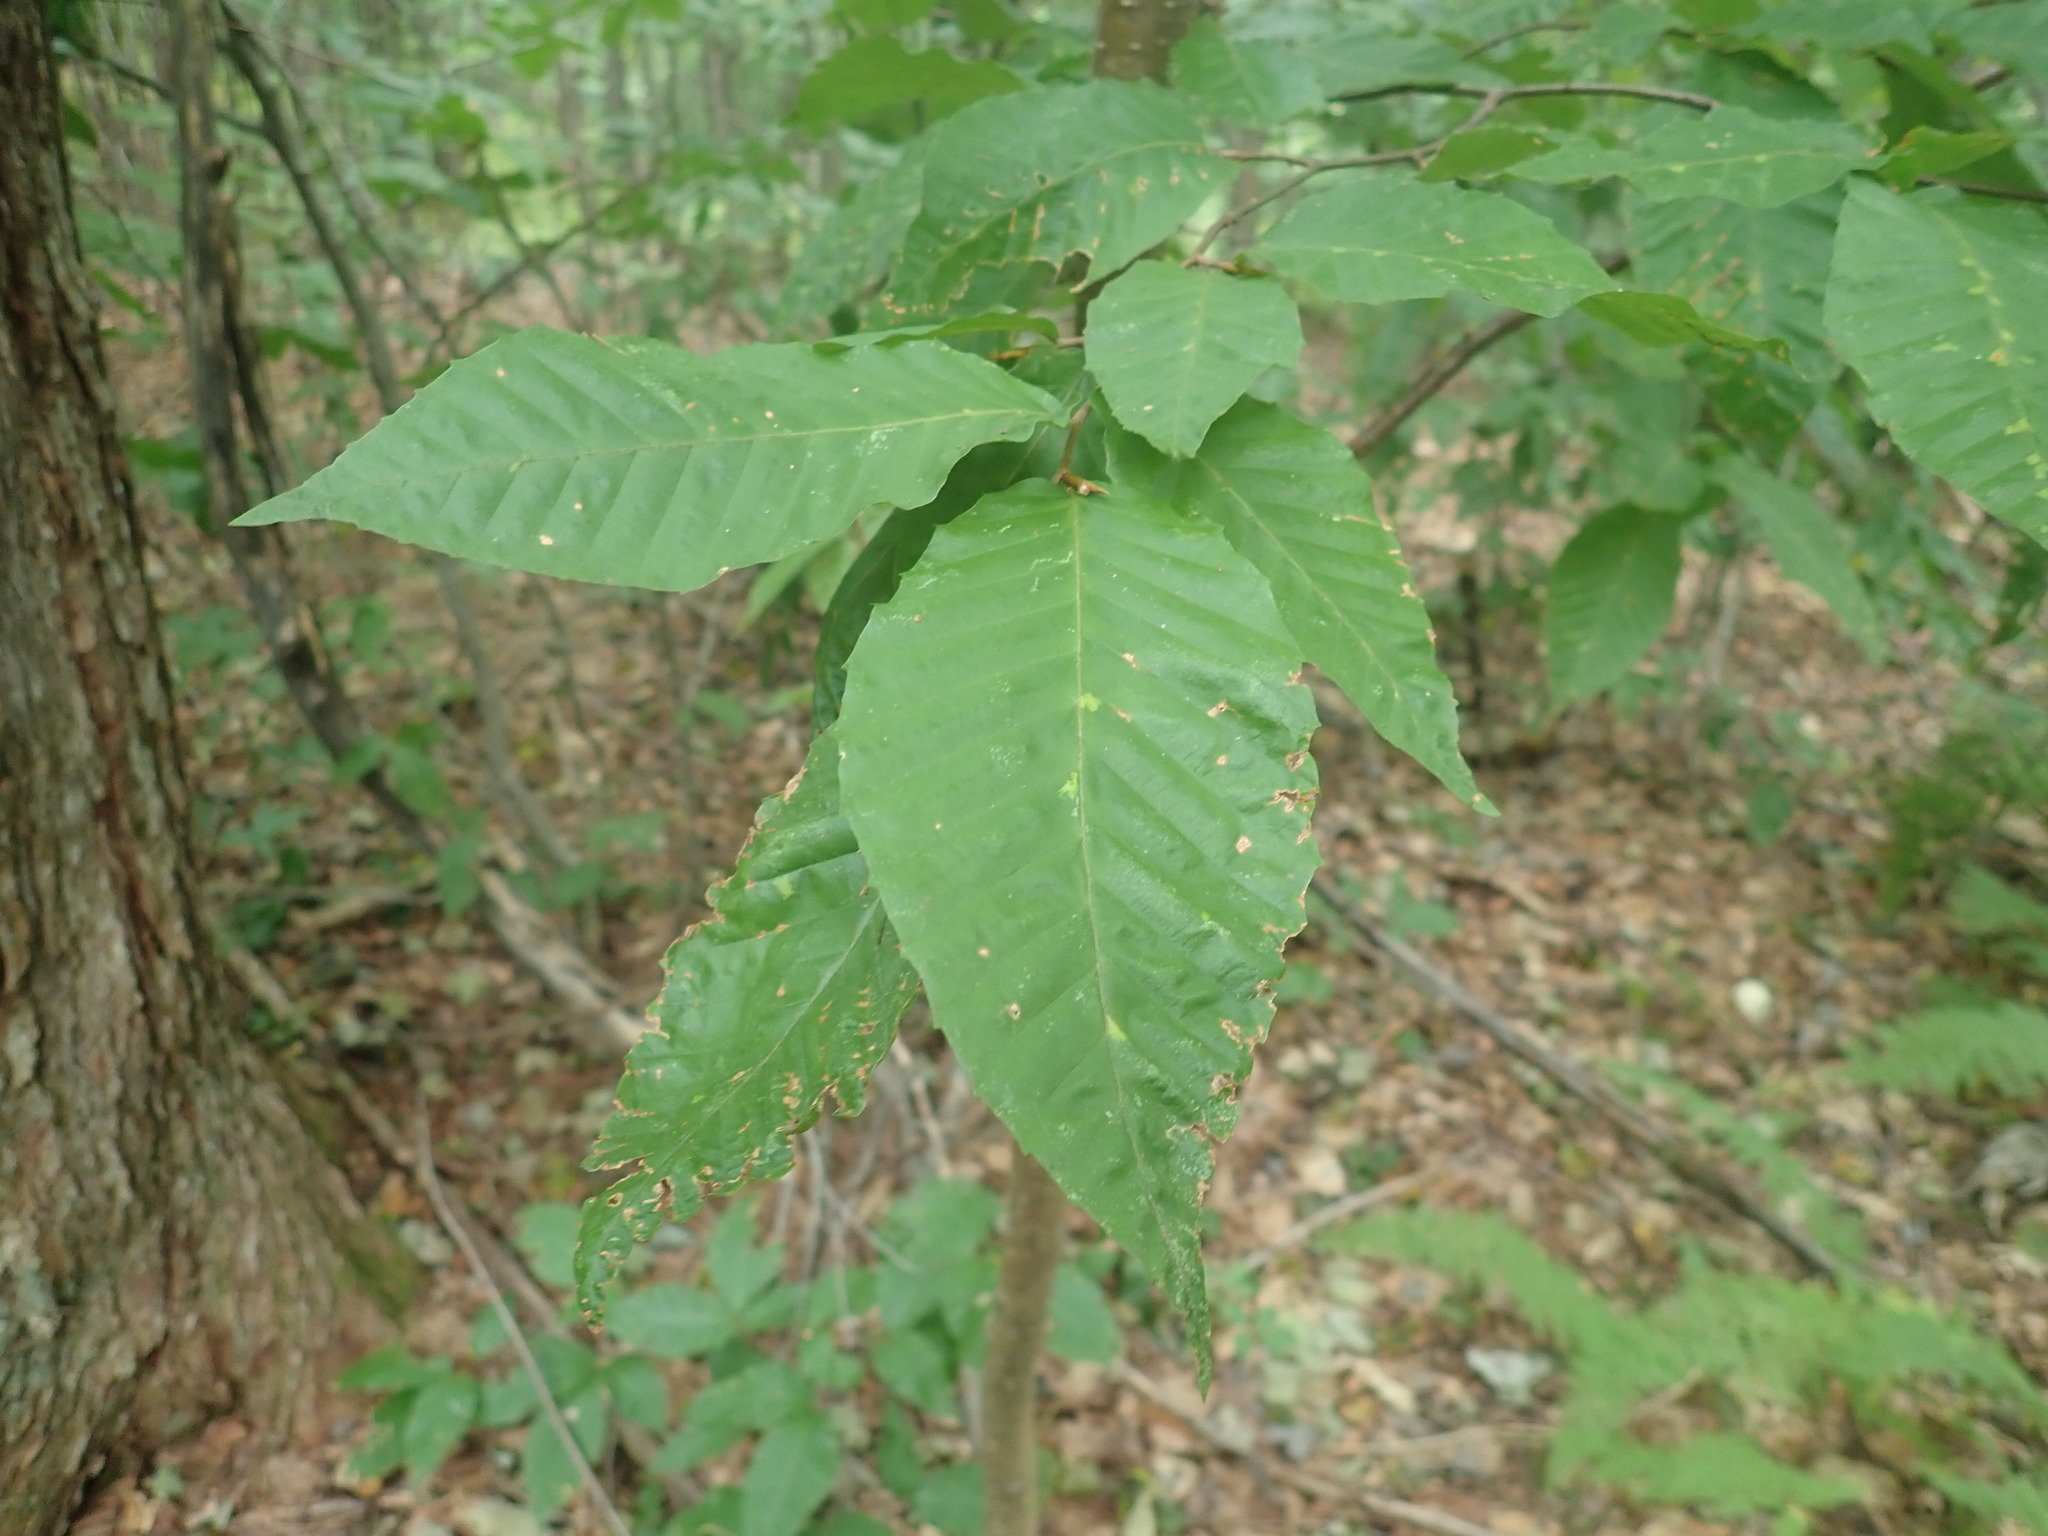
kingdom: Plantae
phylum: Tracheophyta
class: Magnoliopsida
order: Fagales
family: Fagaceae
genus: Fagus
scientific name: Fagus grandifolia
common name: American beech
